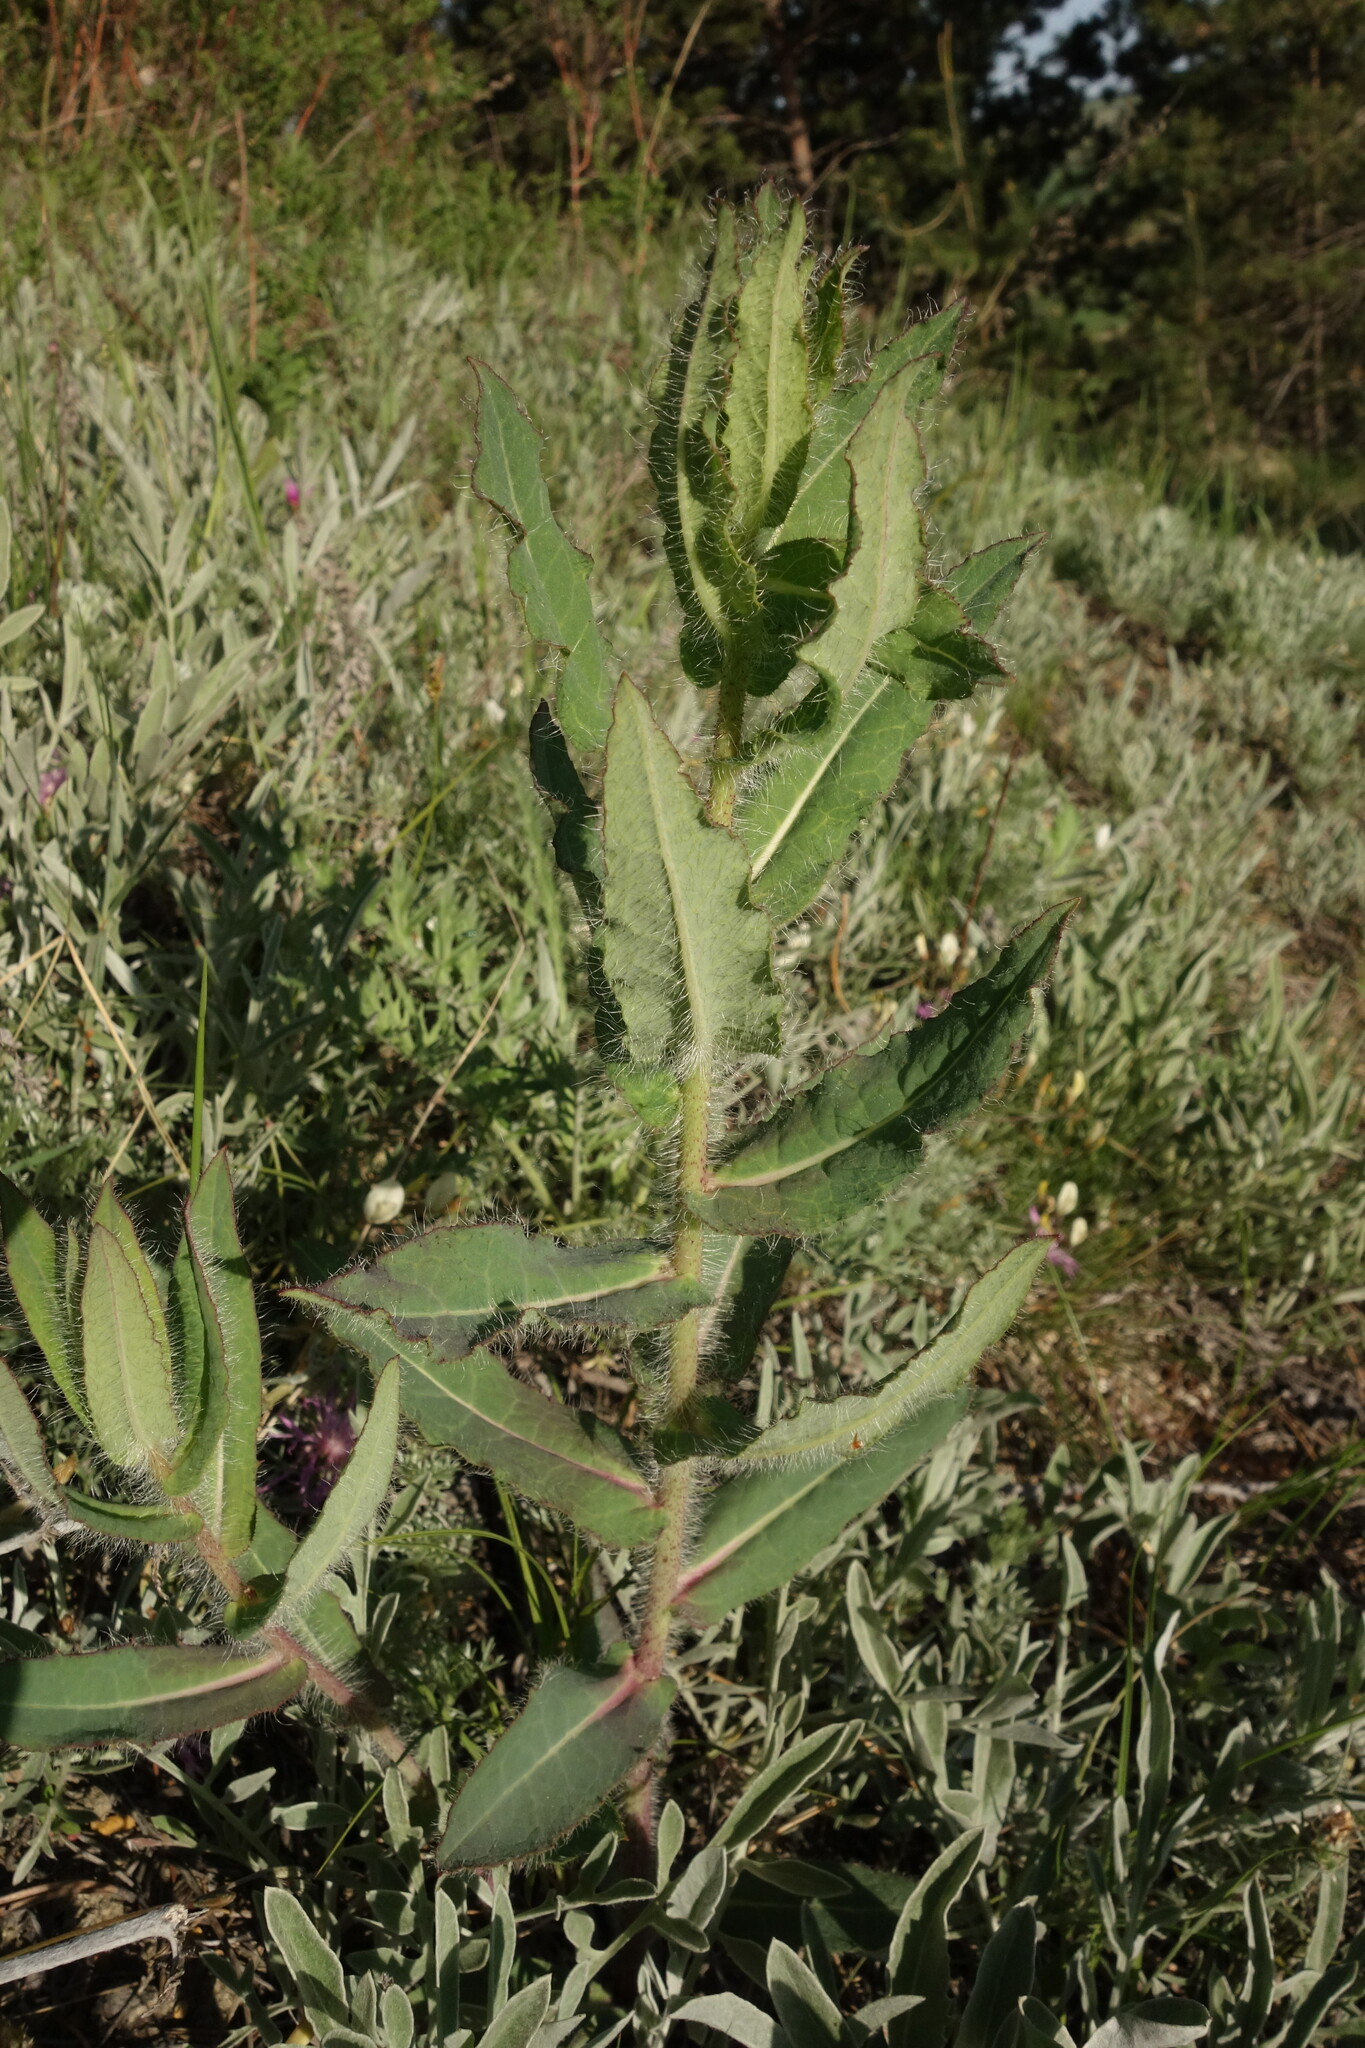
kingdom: Plantae
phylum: Tracheophyta
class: Magnoliopsida
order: Asterales
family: Asteraceae
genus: Hieracium
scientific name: Hieracium virosum
